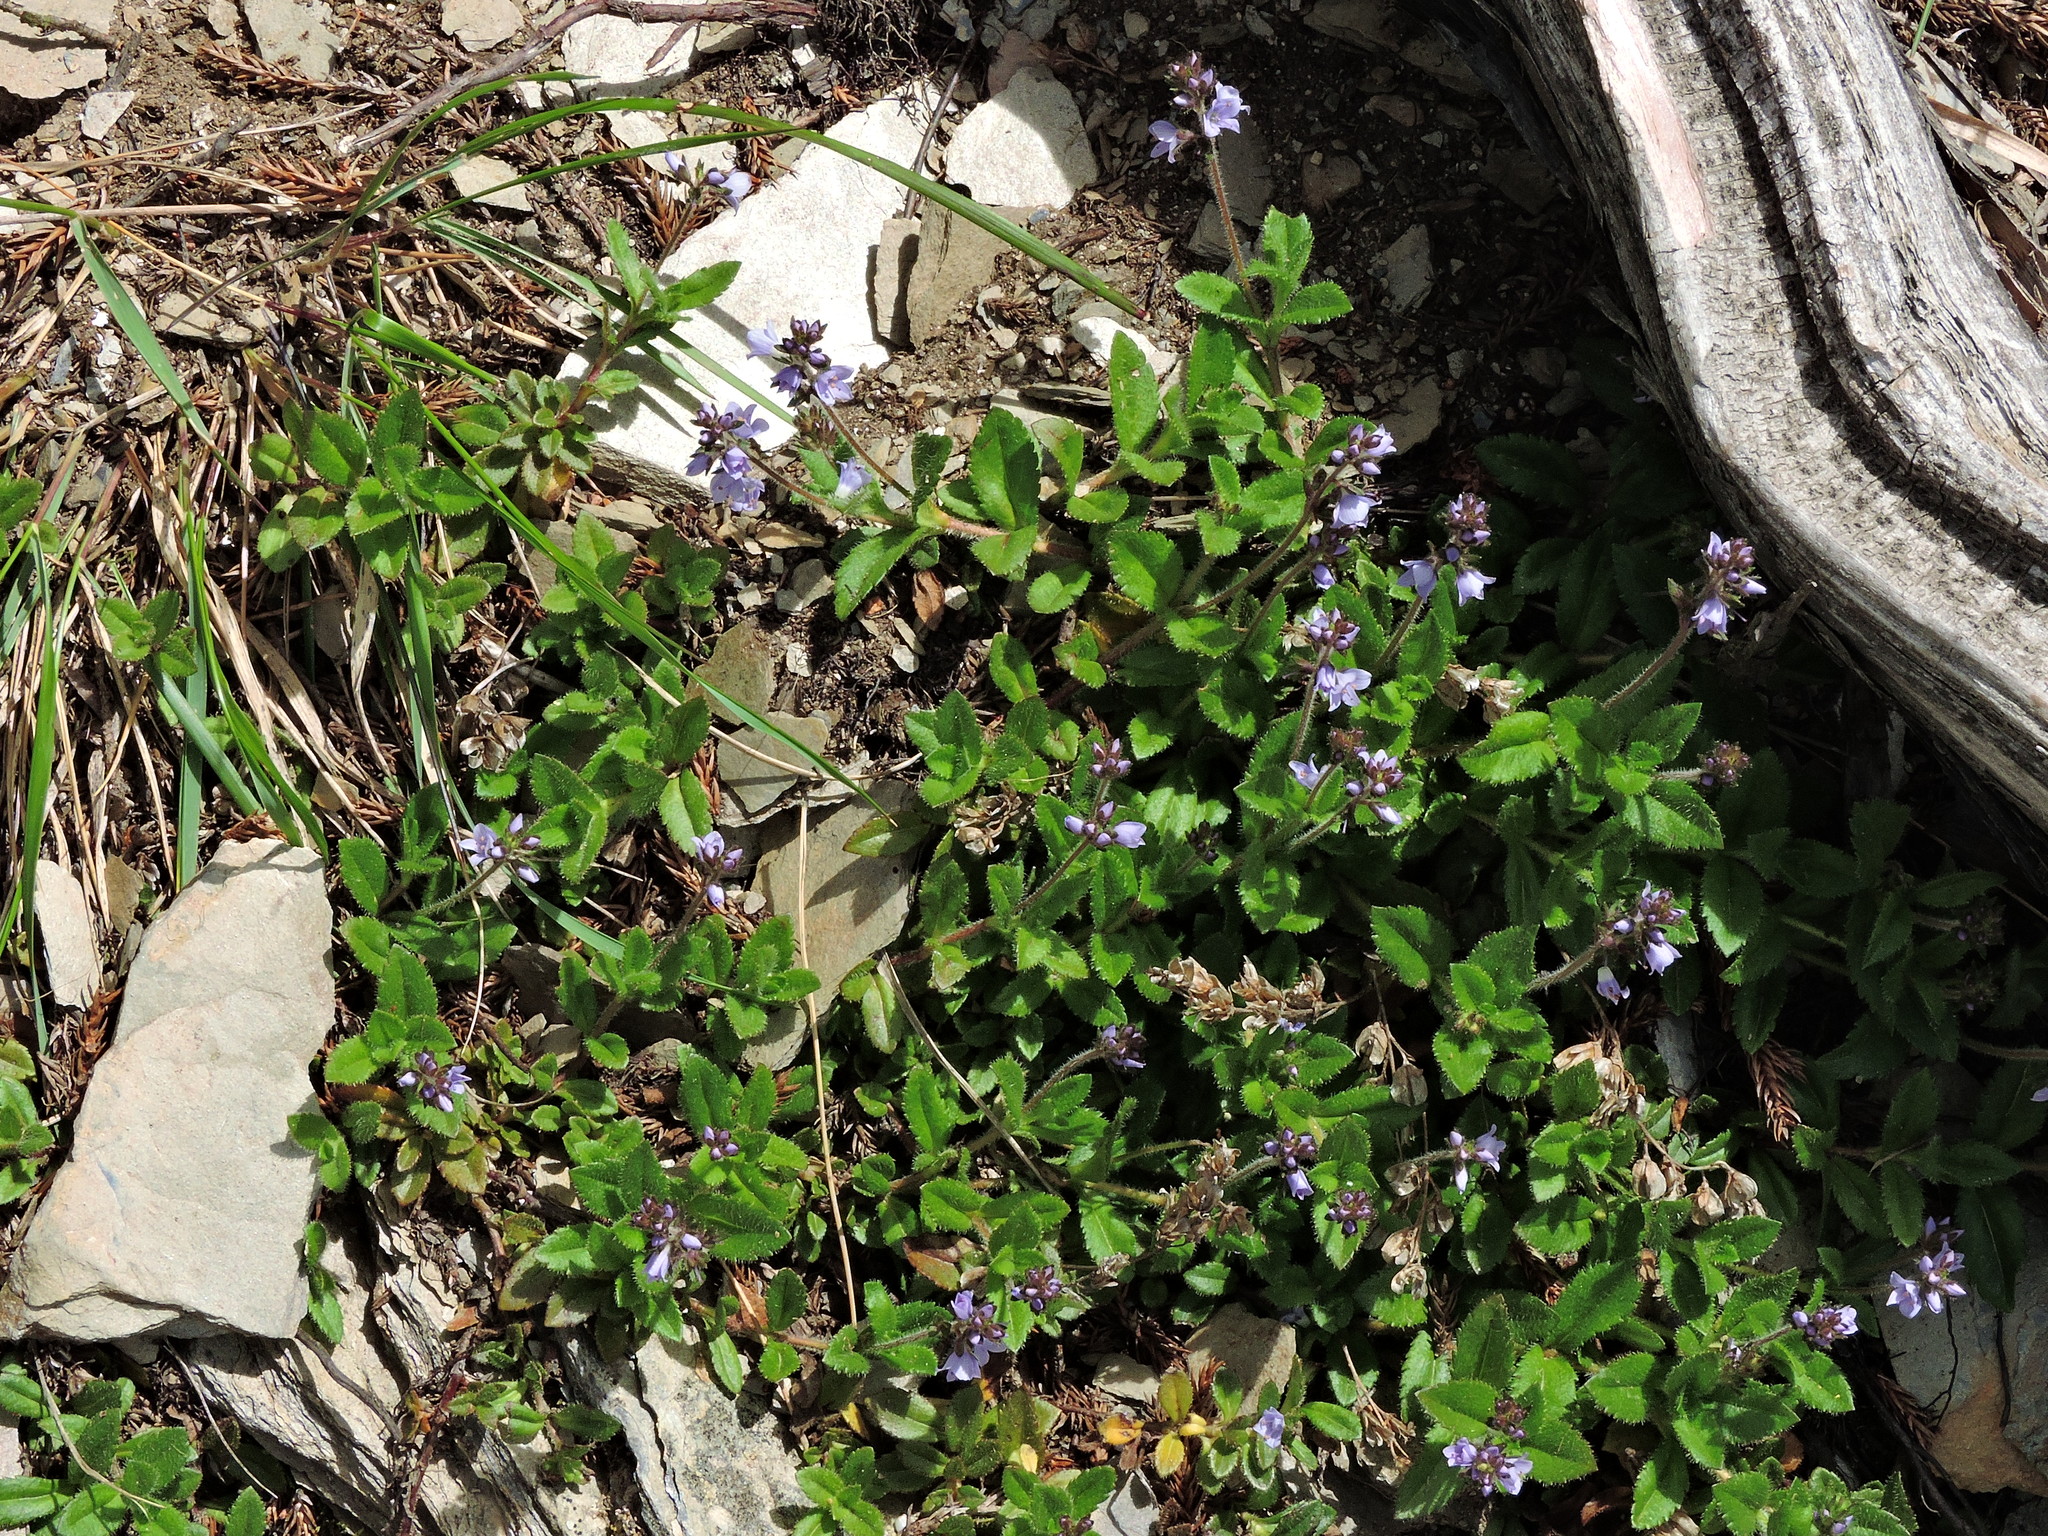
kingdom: Plantae
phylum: Tracheophyta
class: Magnoliopsida
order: Lamiales
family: Plantaginaceae
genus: Veronica
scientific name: Veronica morrisonicola
